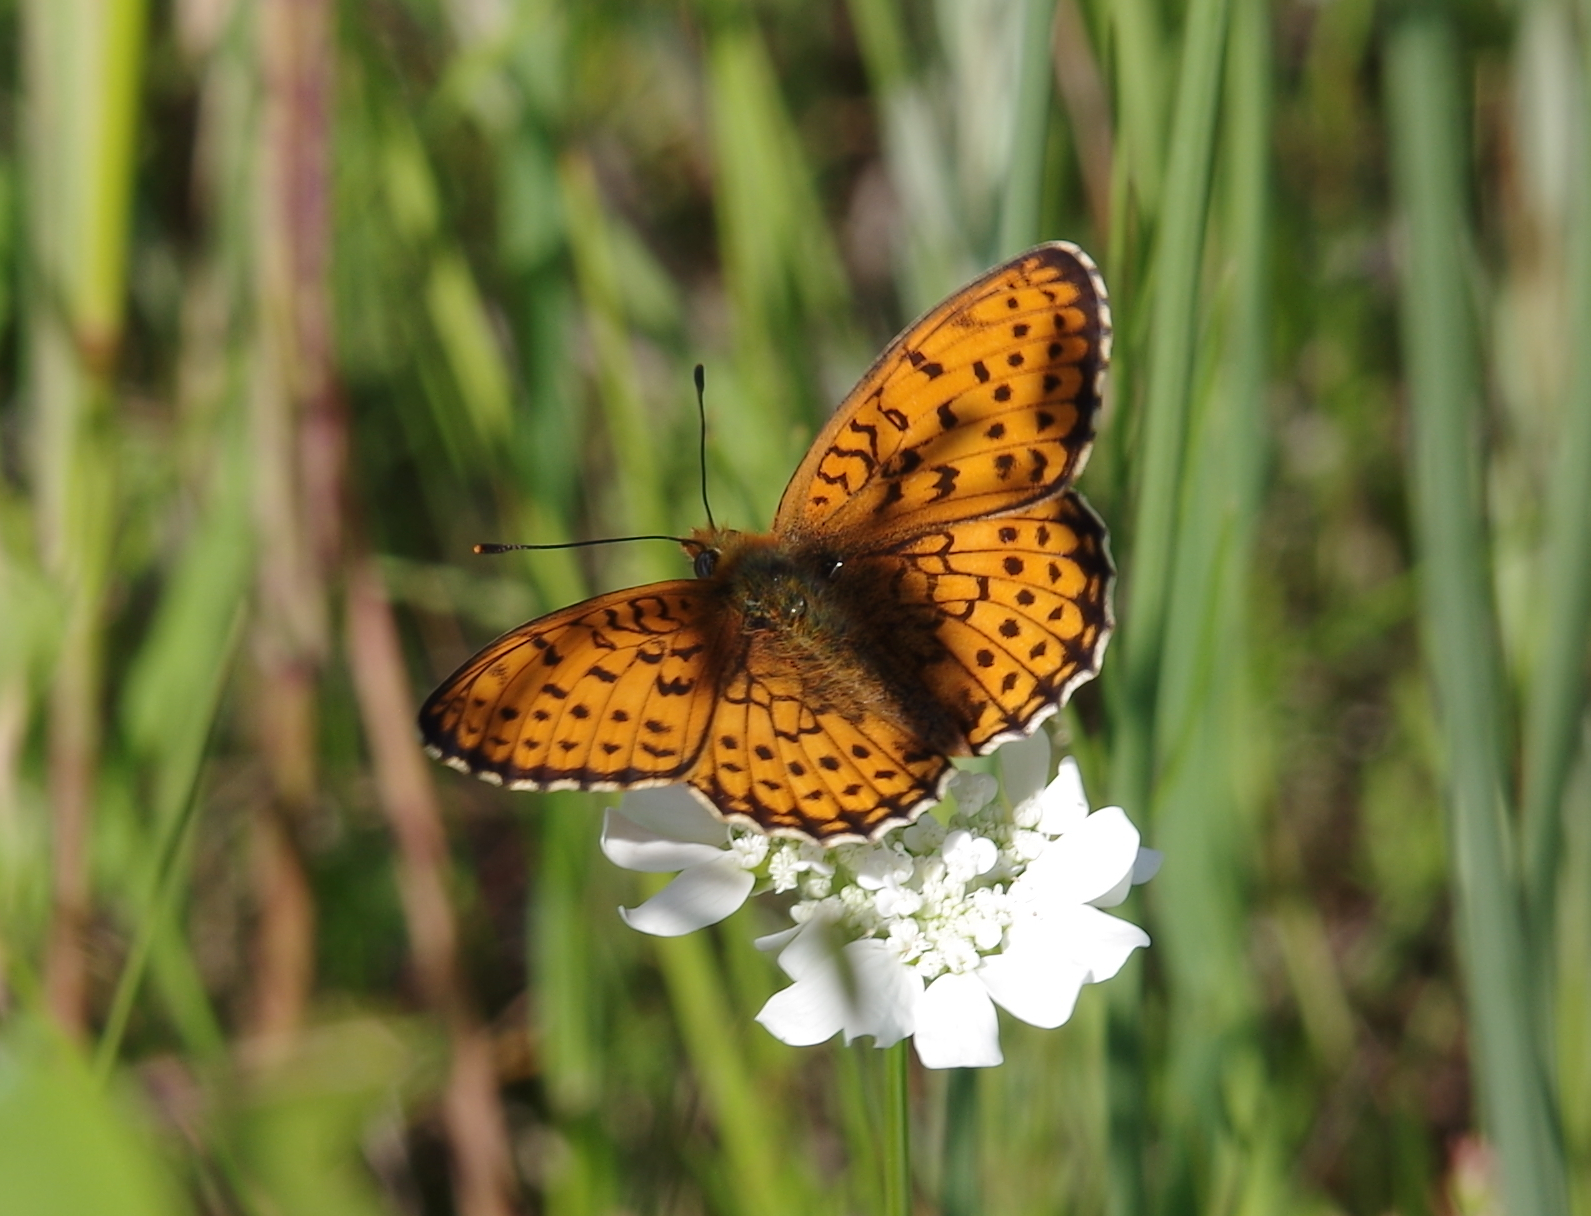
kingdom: Animalia
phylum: Arthropoda
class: Insecta
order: Lepidoptera
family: Nymphalidae
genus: Brenthis
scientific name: Brenthis hecate
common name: Twin-spot fritillary
